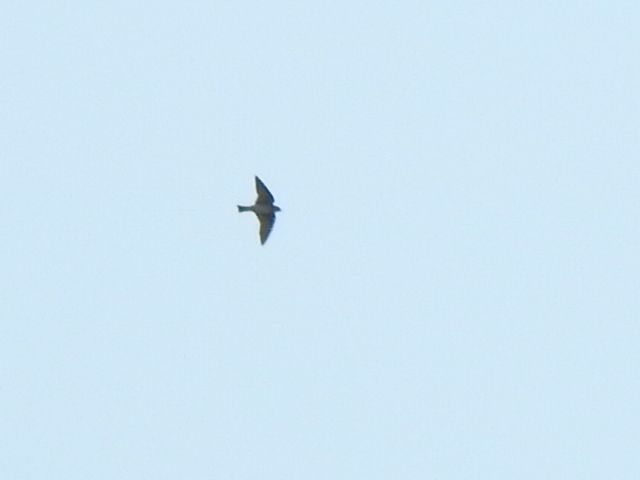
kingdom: Animalia
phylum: Chordata
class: Aves
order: Passeriformes
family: Hirundinidae
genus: Progne
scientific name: Progne subis
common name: Purple martin
